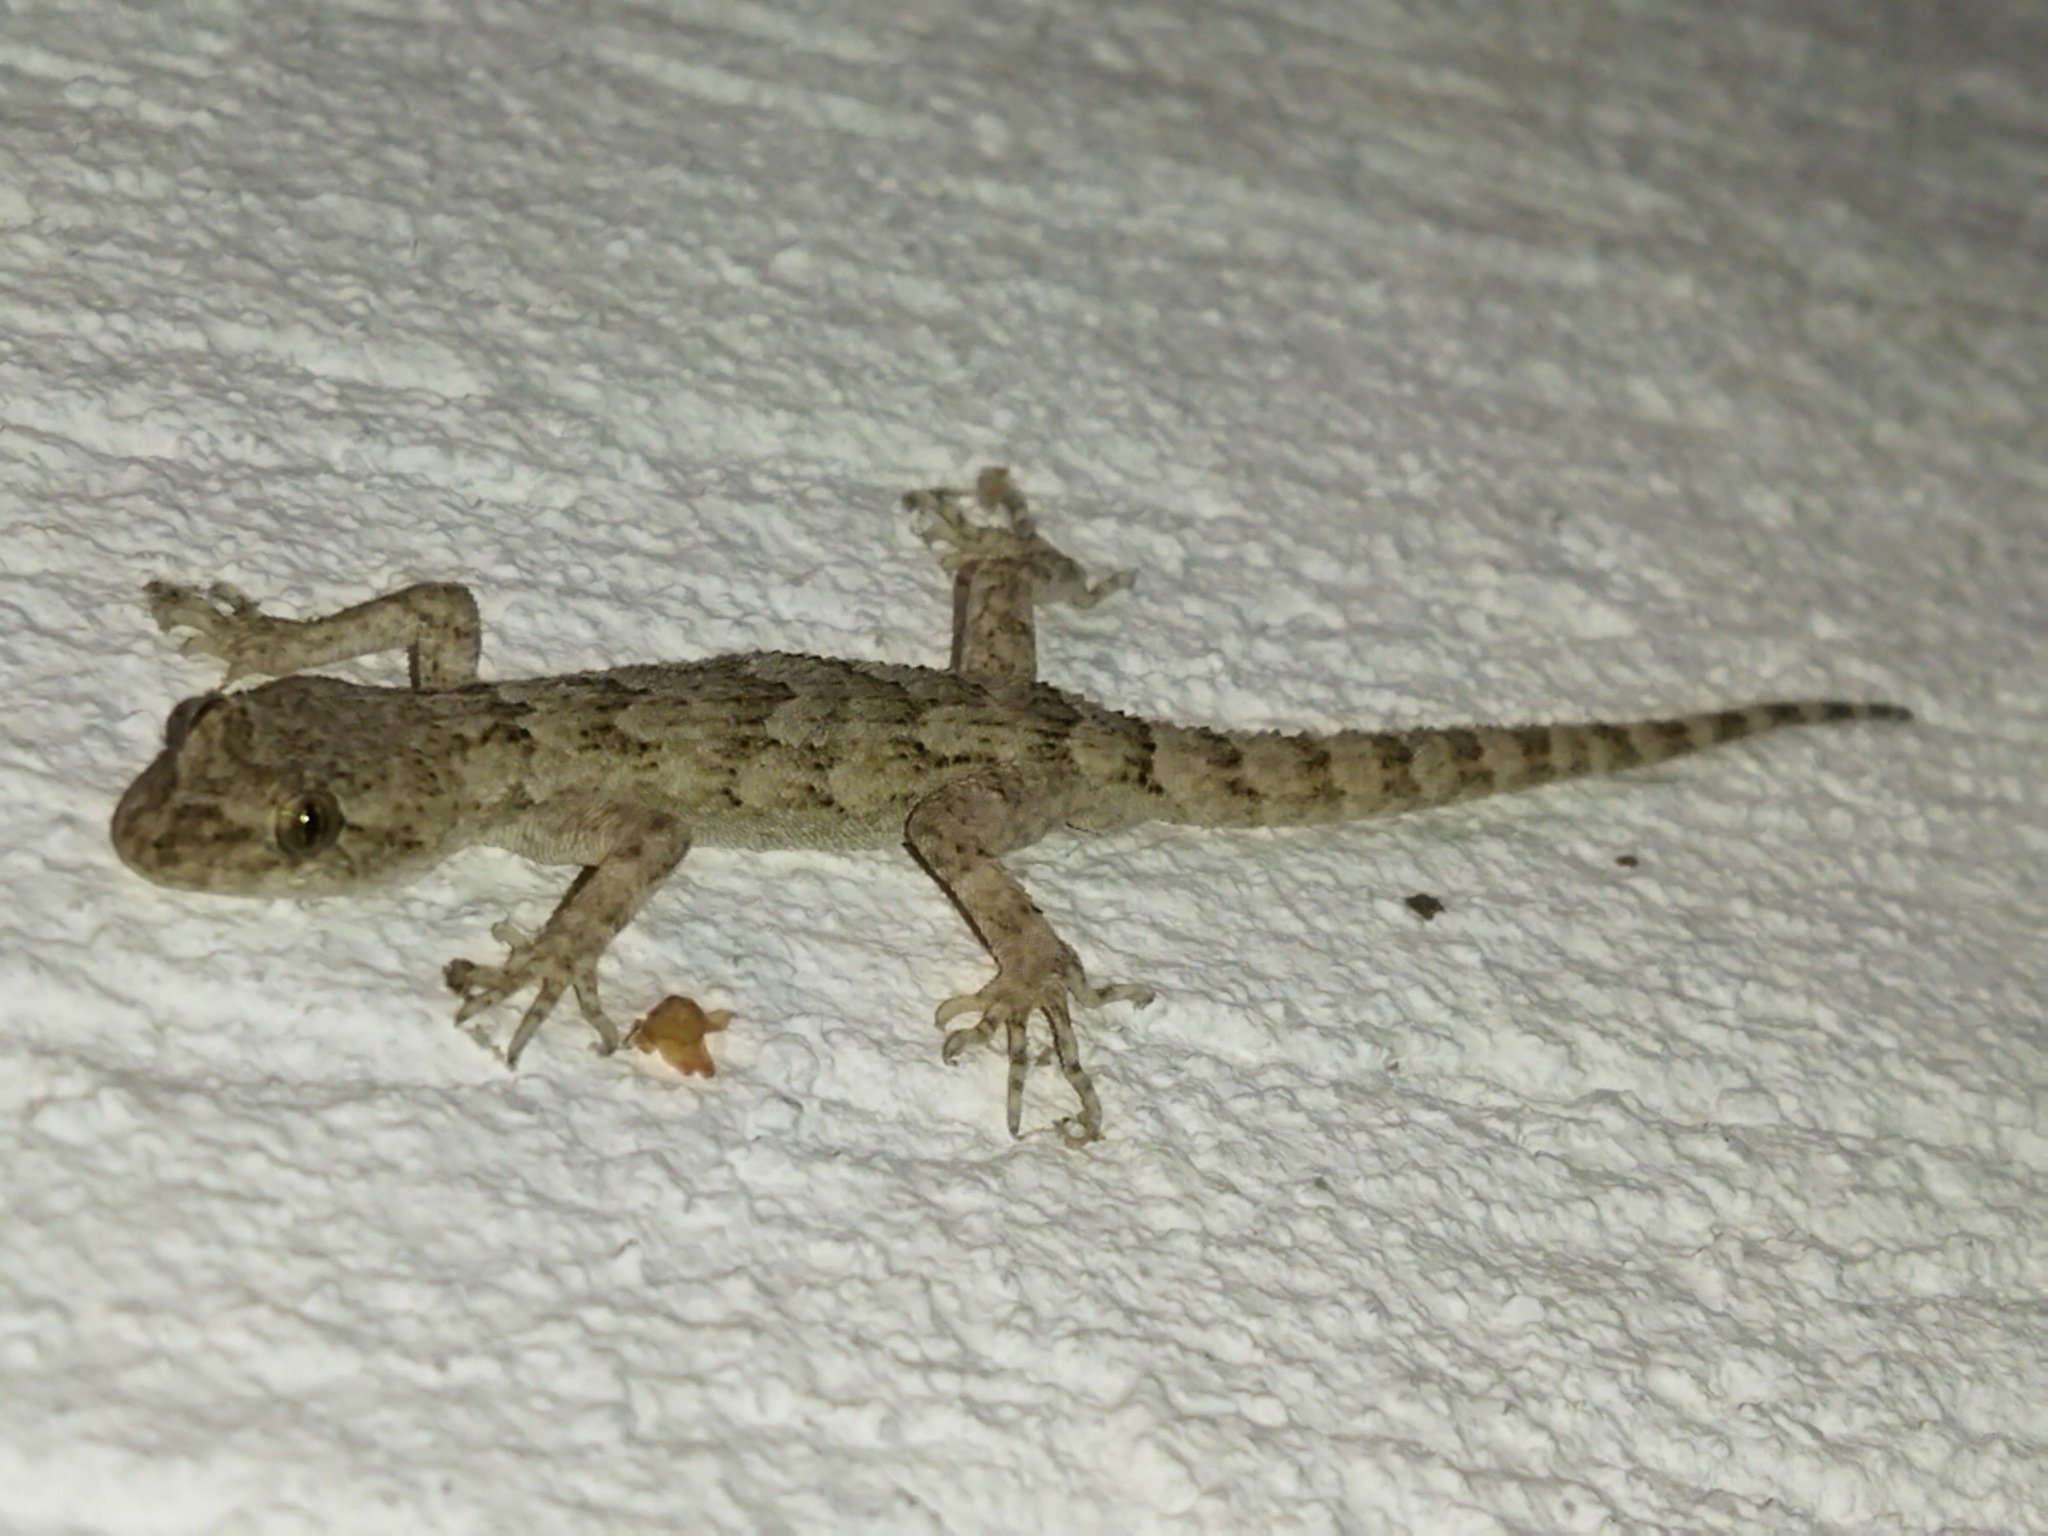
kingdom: Animalia
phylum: Chordata
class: Squamata
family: Gekkonidae
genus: Mediodactylus
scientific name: Mediodactylus kotschyi
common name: Kotschy's gecko
